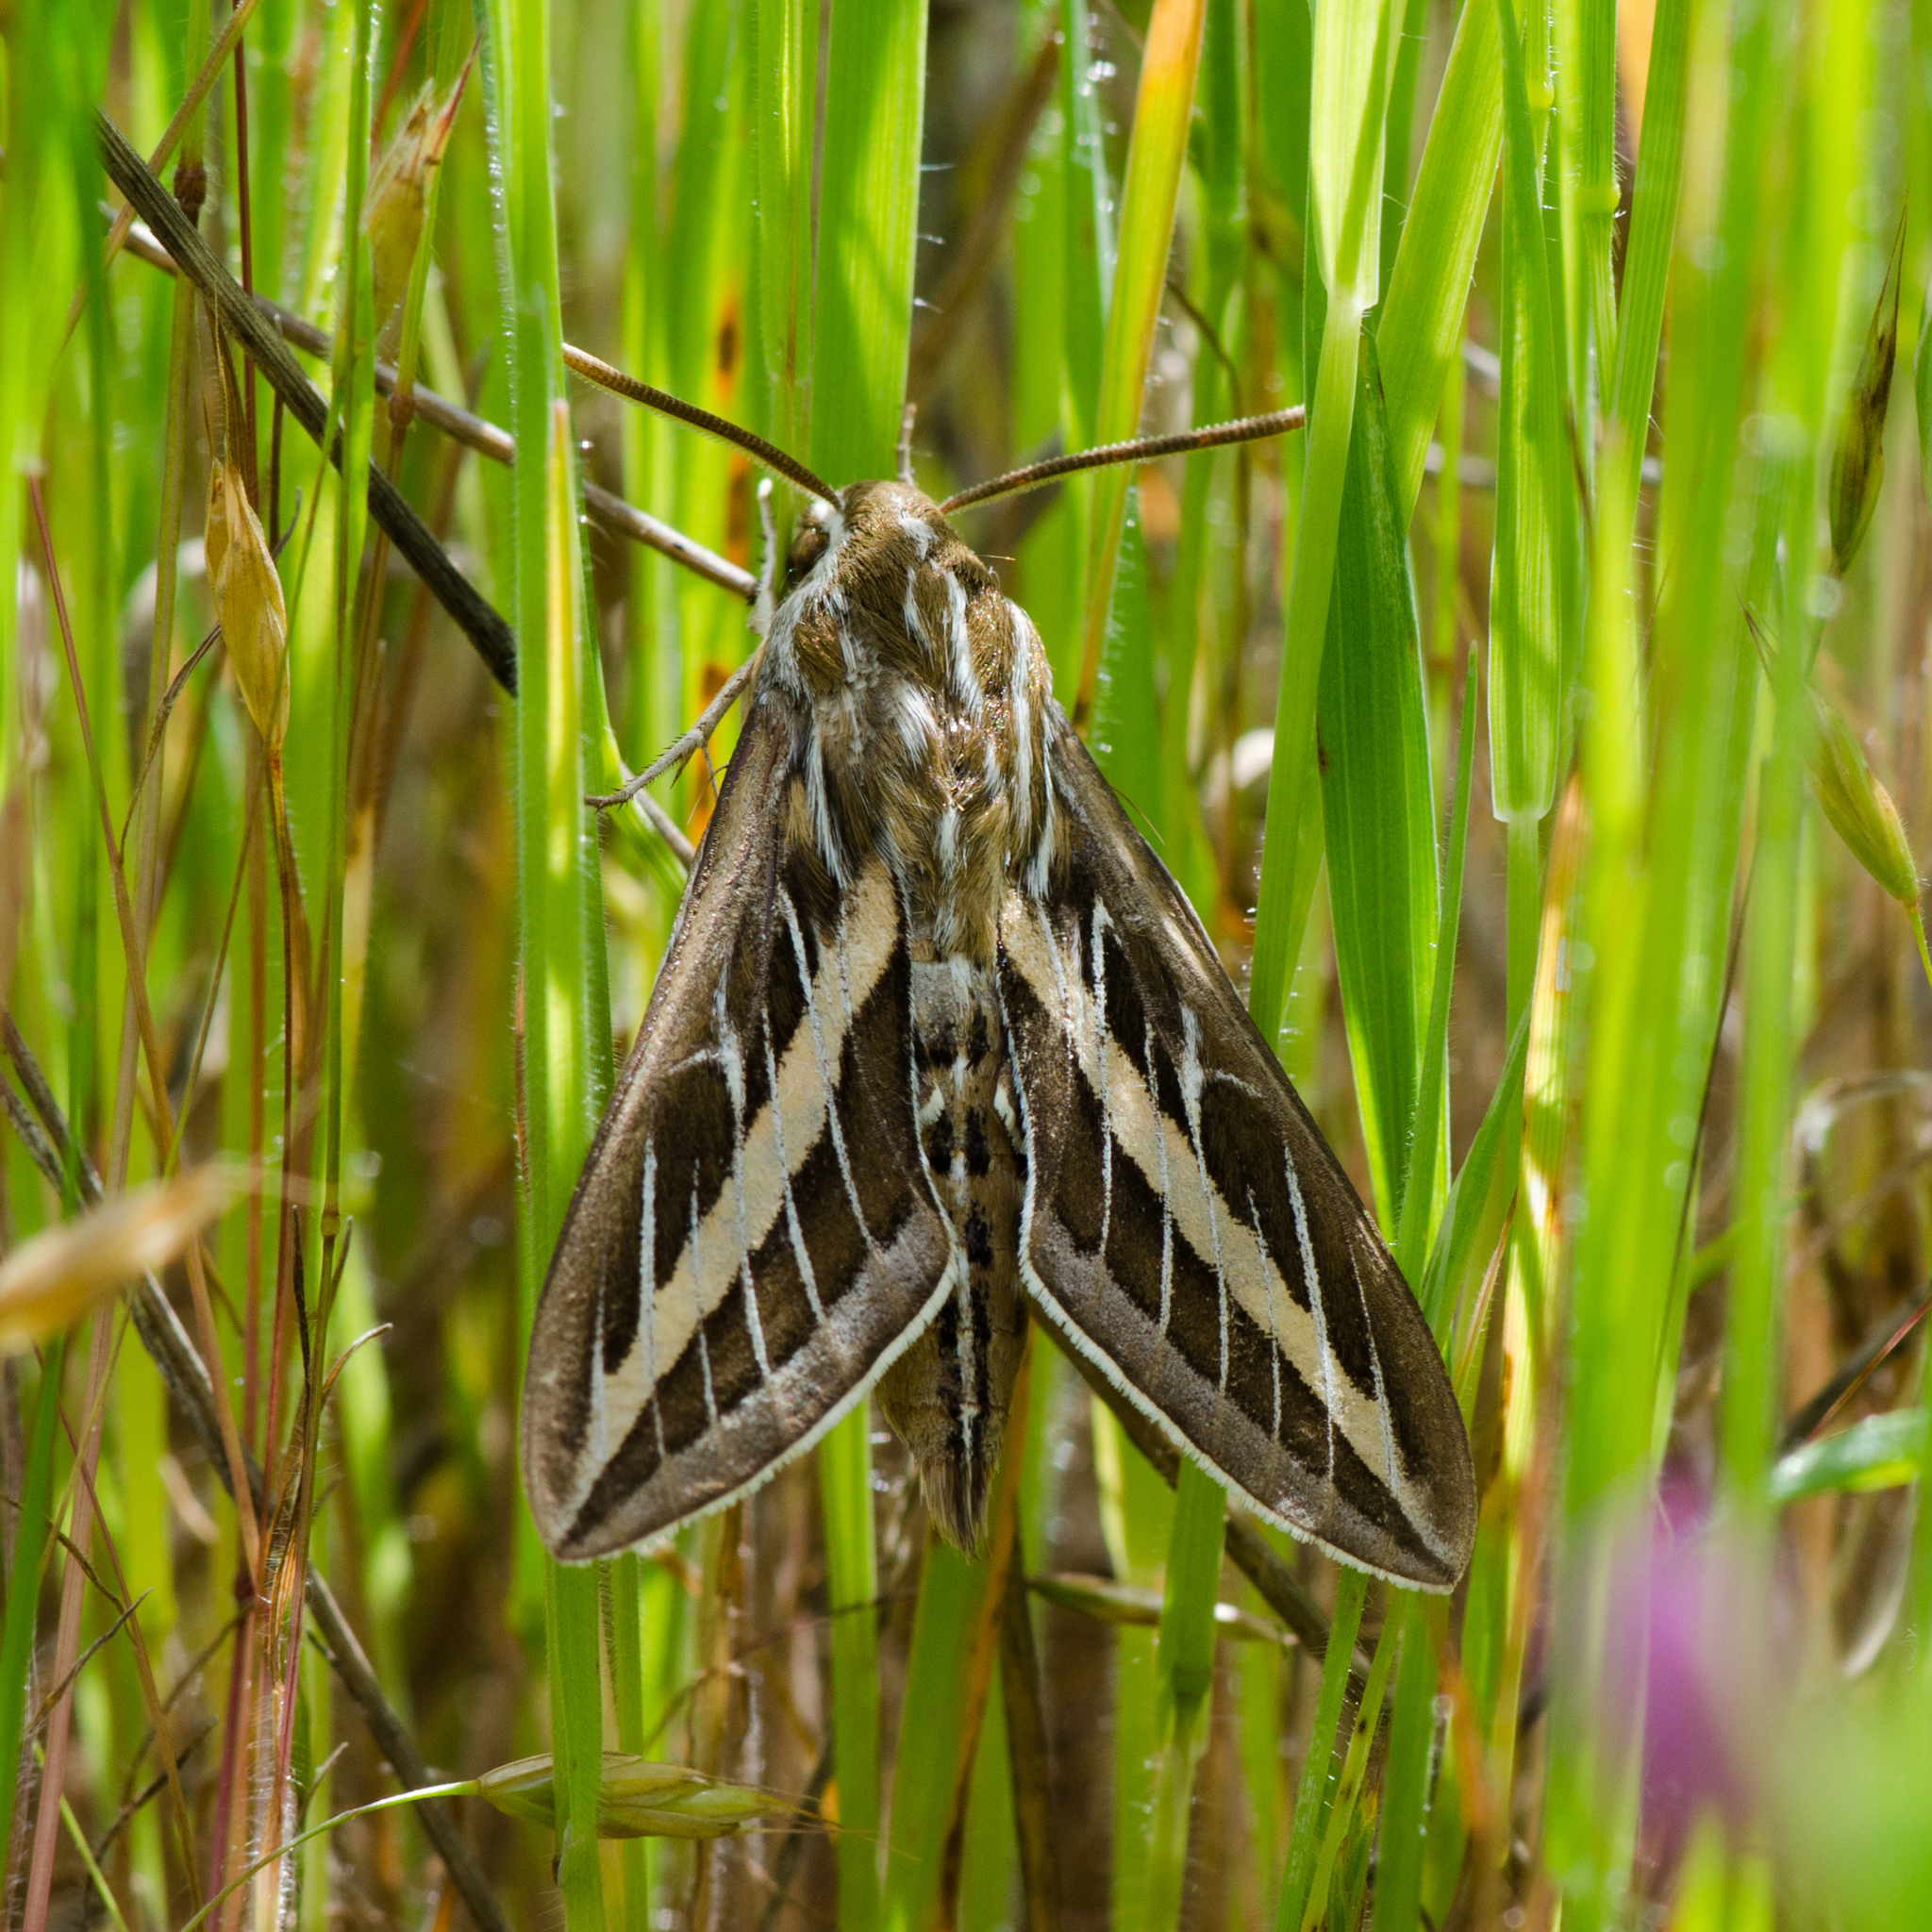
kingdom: Animalia
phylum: Arthropoda
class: Insecta
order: Lepidoptera
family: Sphingidae
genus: Hyles
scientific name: Hyles lineata
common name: White-lined sphinx
